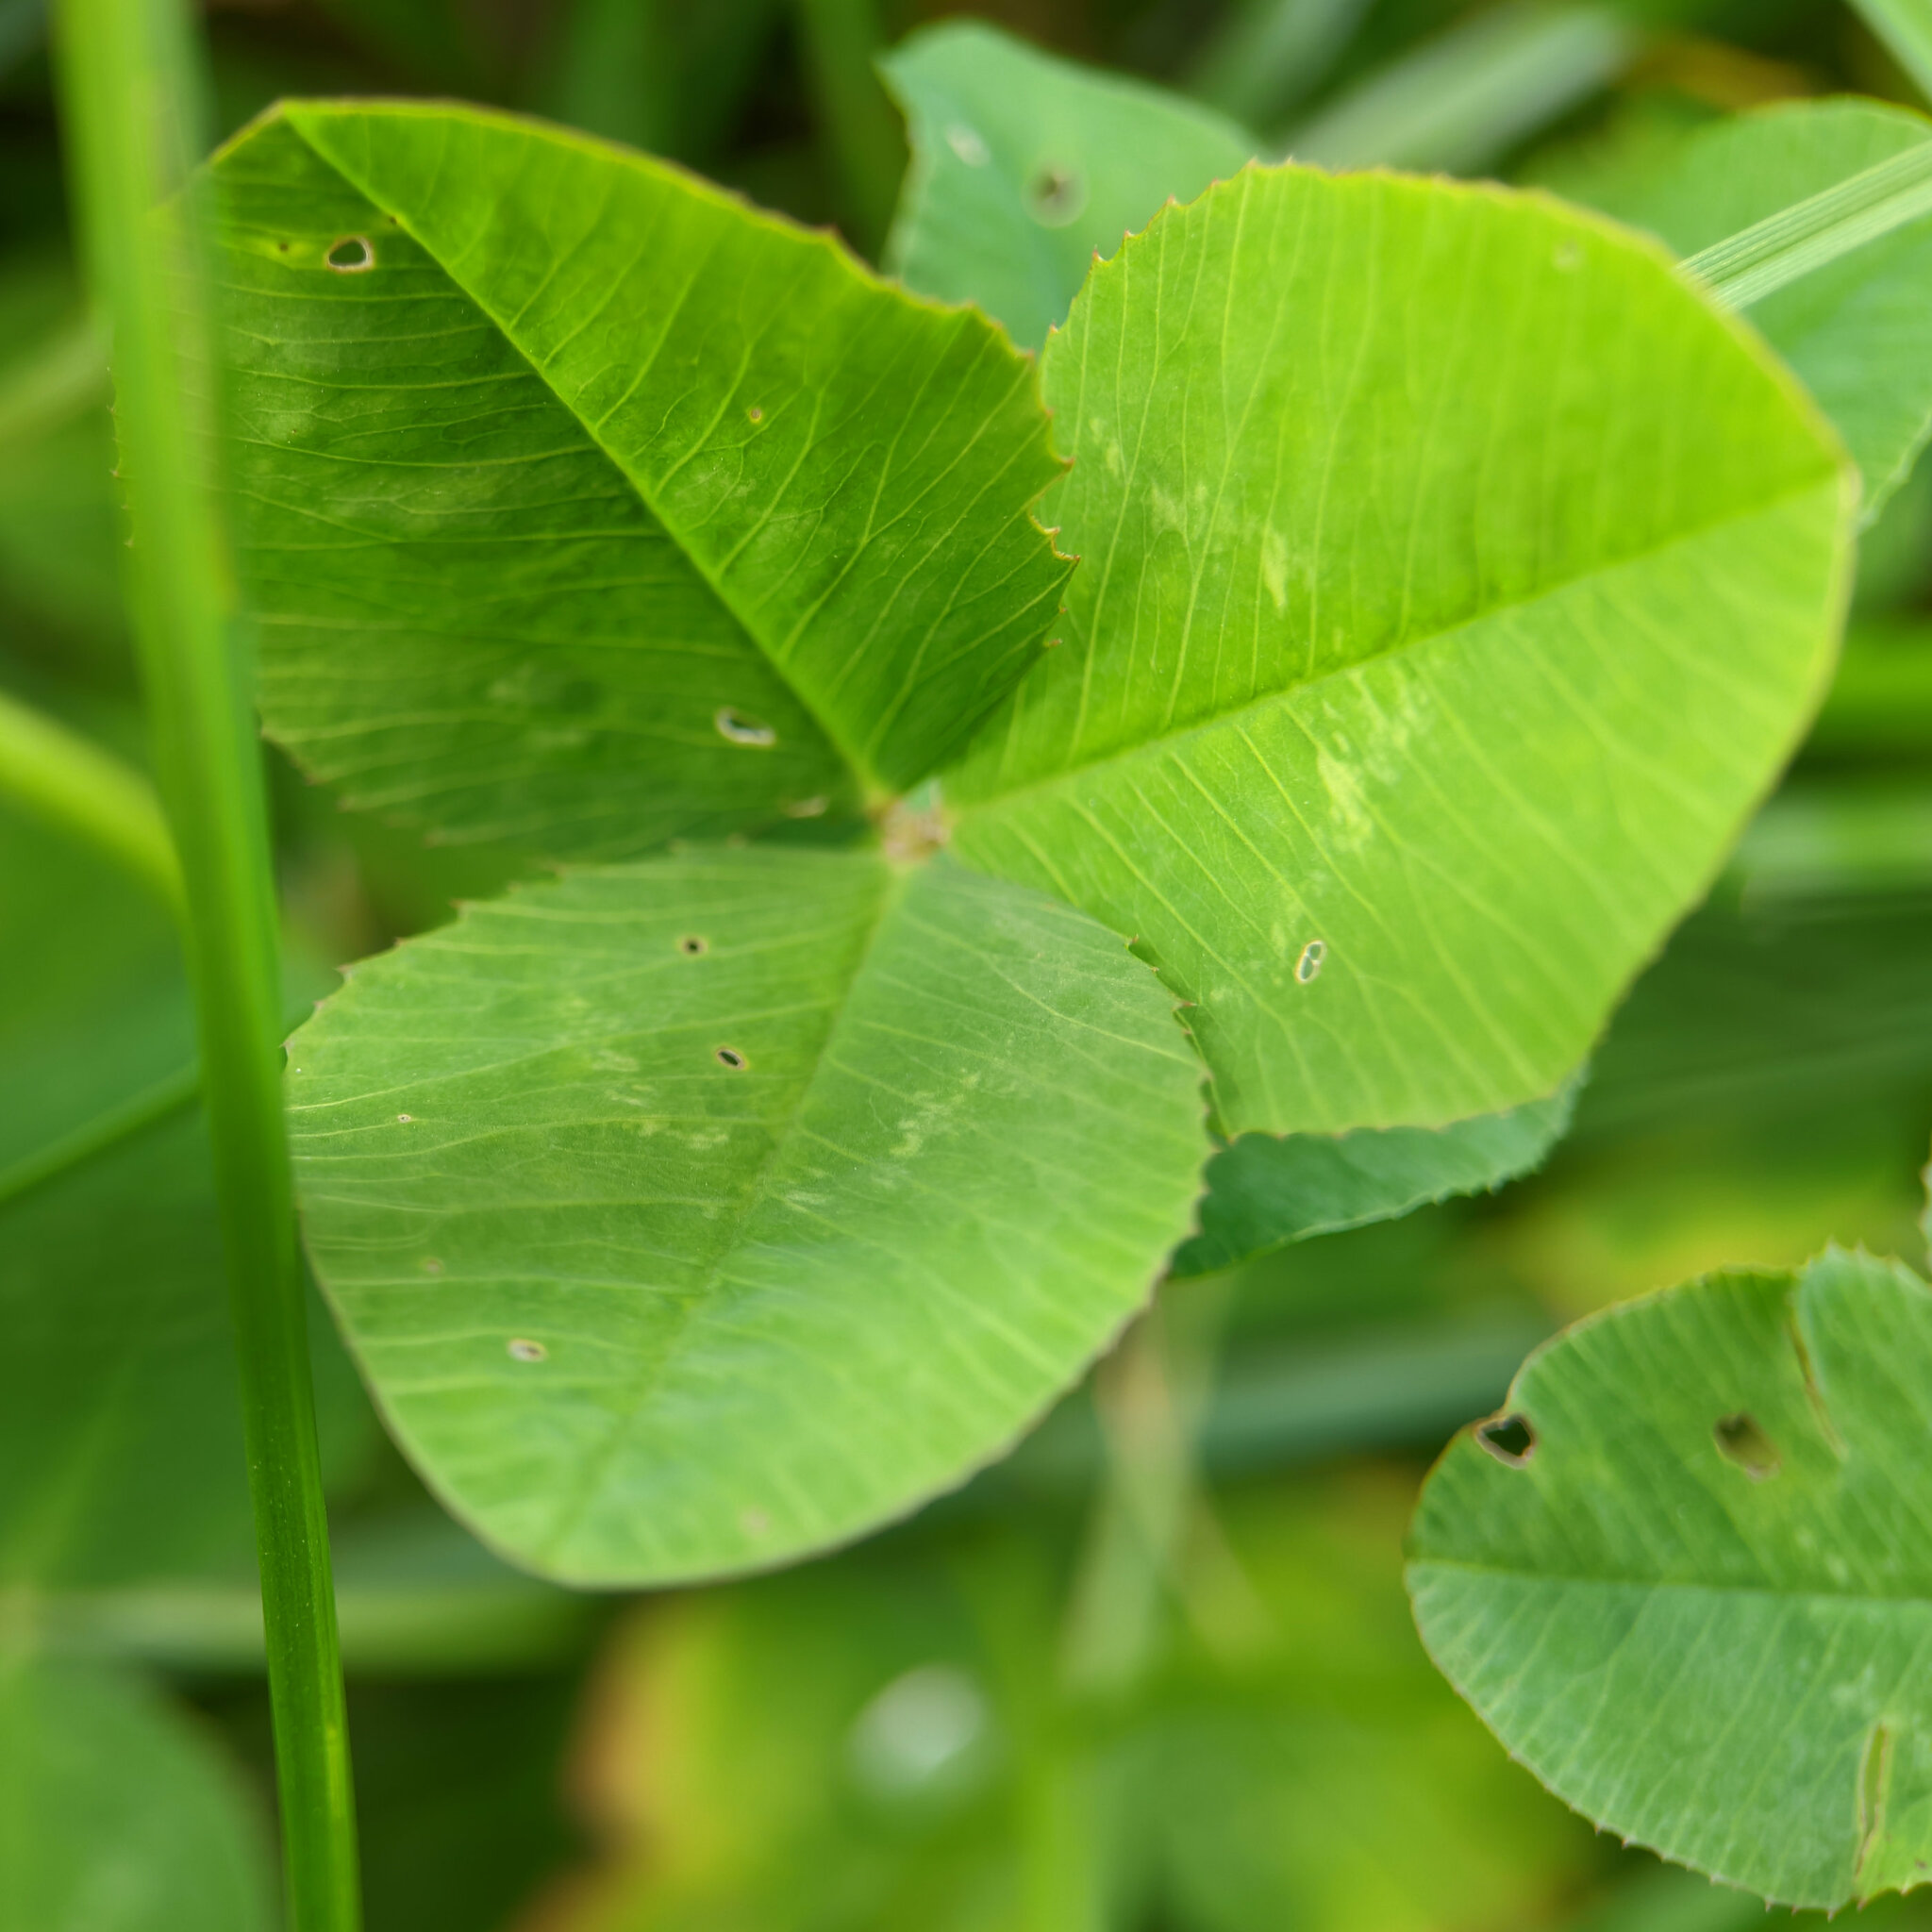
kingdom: Plantae
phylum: Tracheophyta
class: Magnoliopsida
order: Fabales
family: Fabaceae
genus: Trifolium
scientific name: Trifolium repens
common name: White clover
